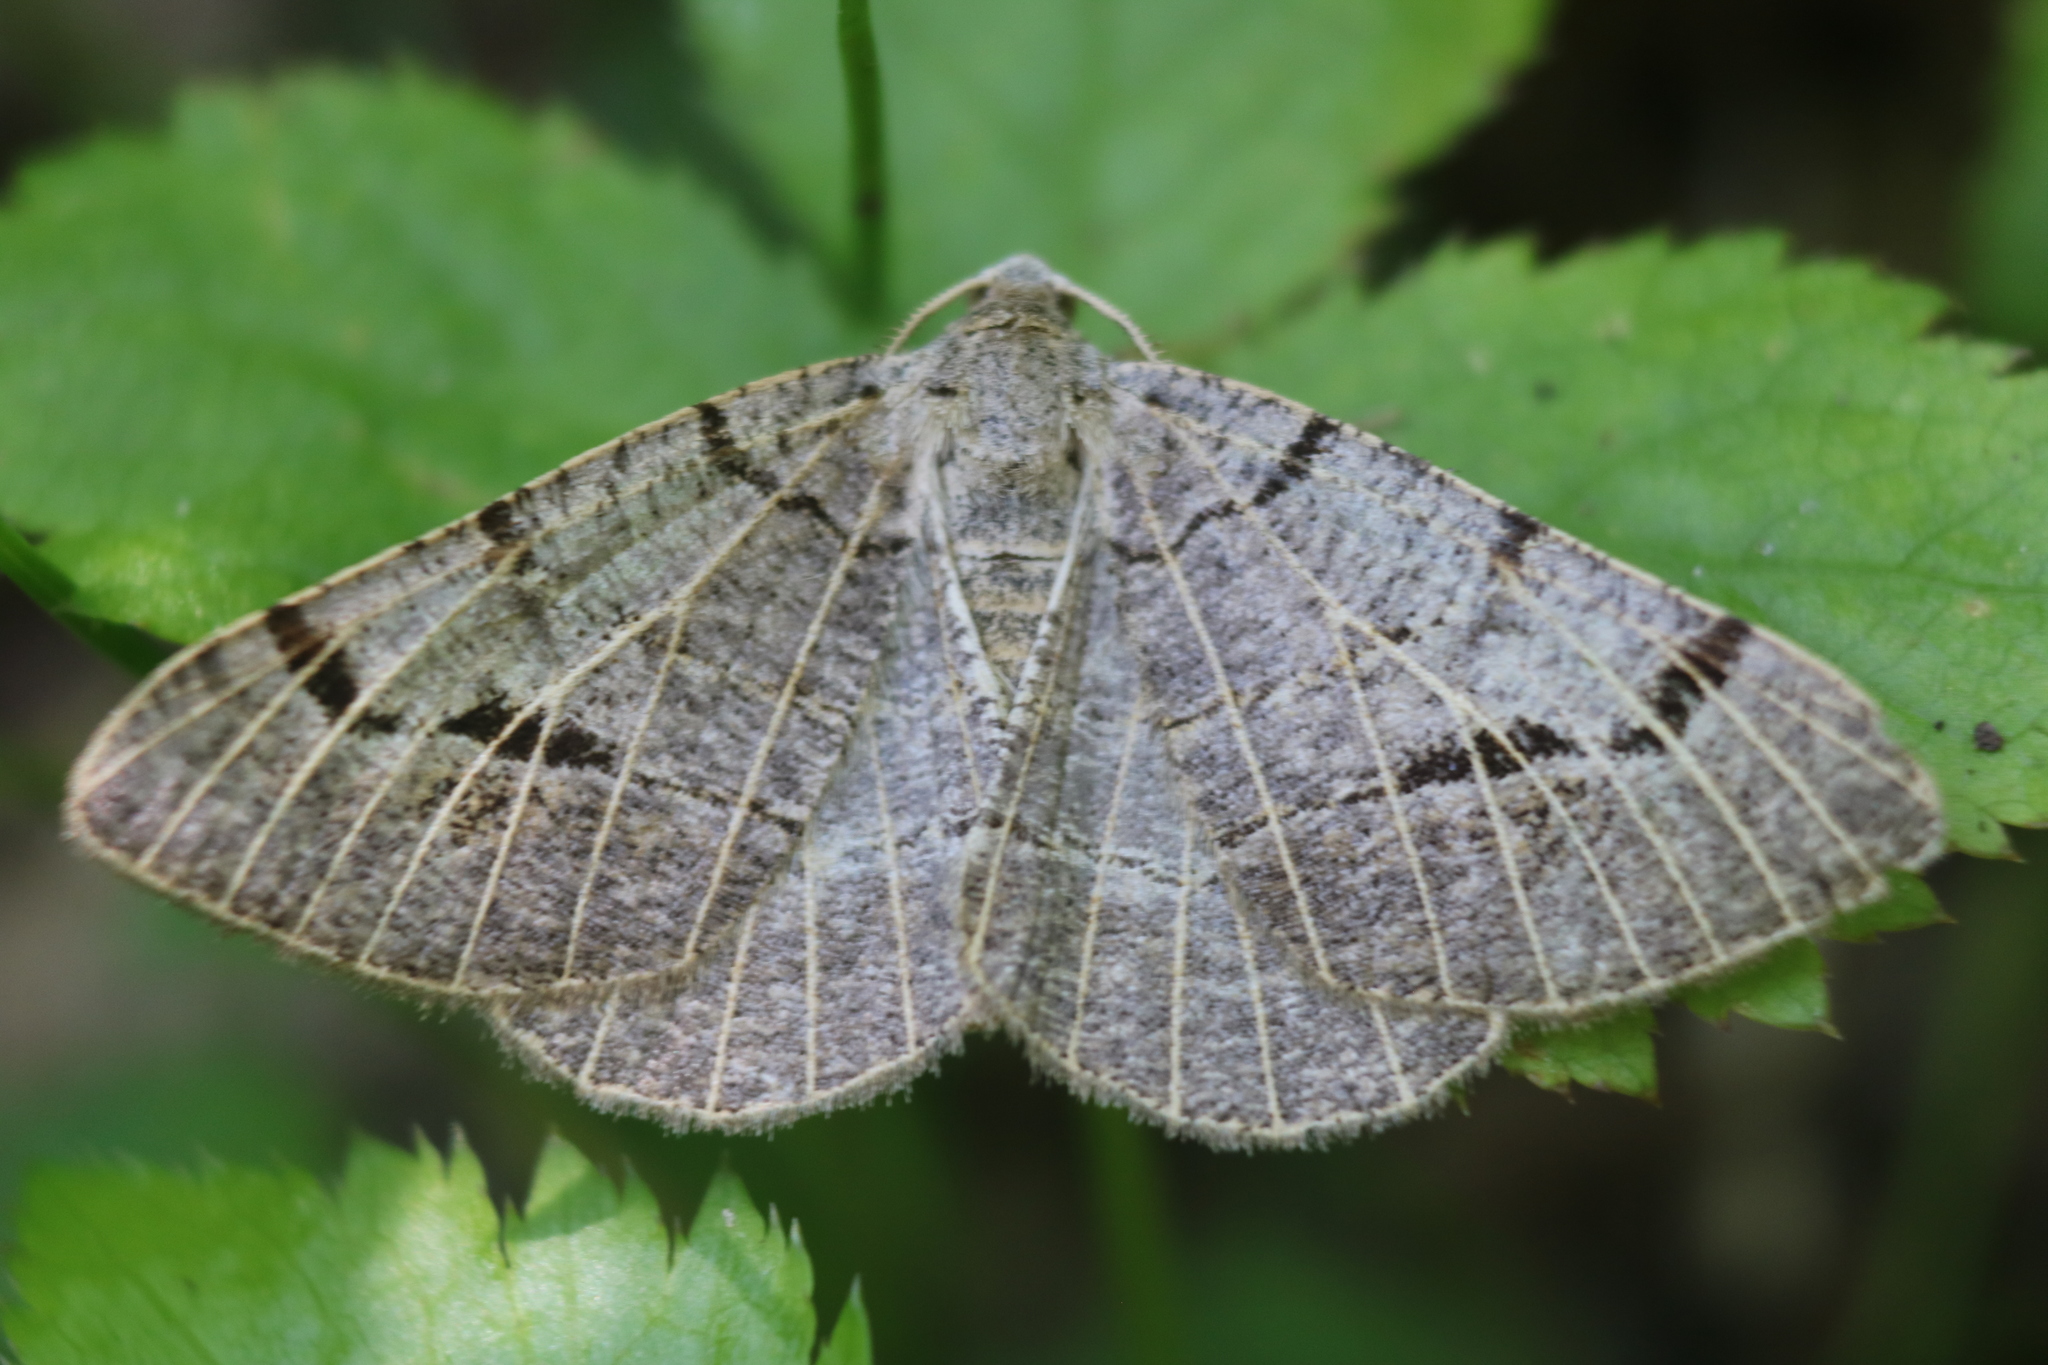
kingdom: Animalia
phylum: Arthropoda
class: Insecta
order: Lepidoptera
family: Geometridae
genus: Isturgia
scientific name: Isturgia dislocaria
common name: Pale-viened enconista
